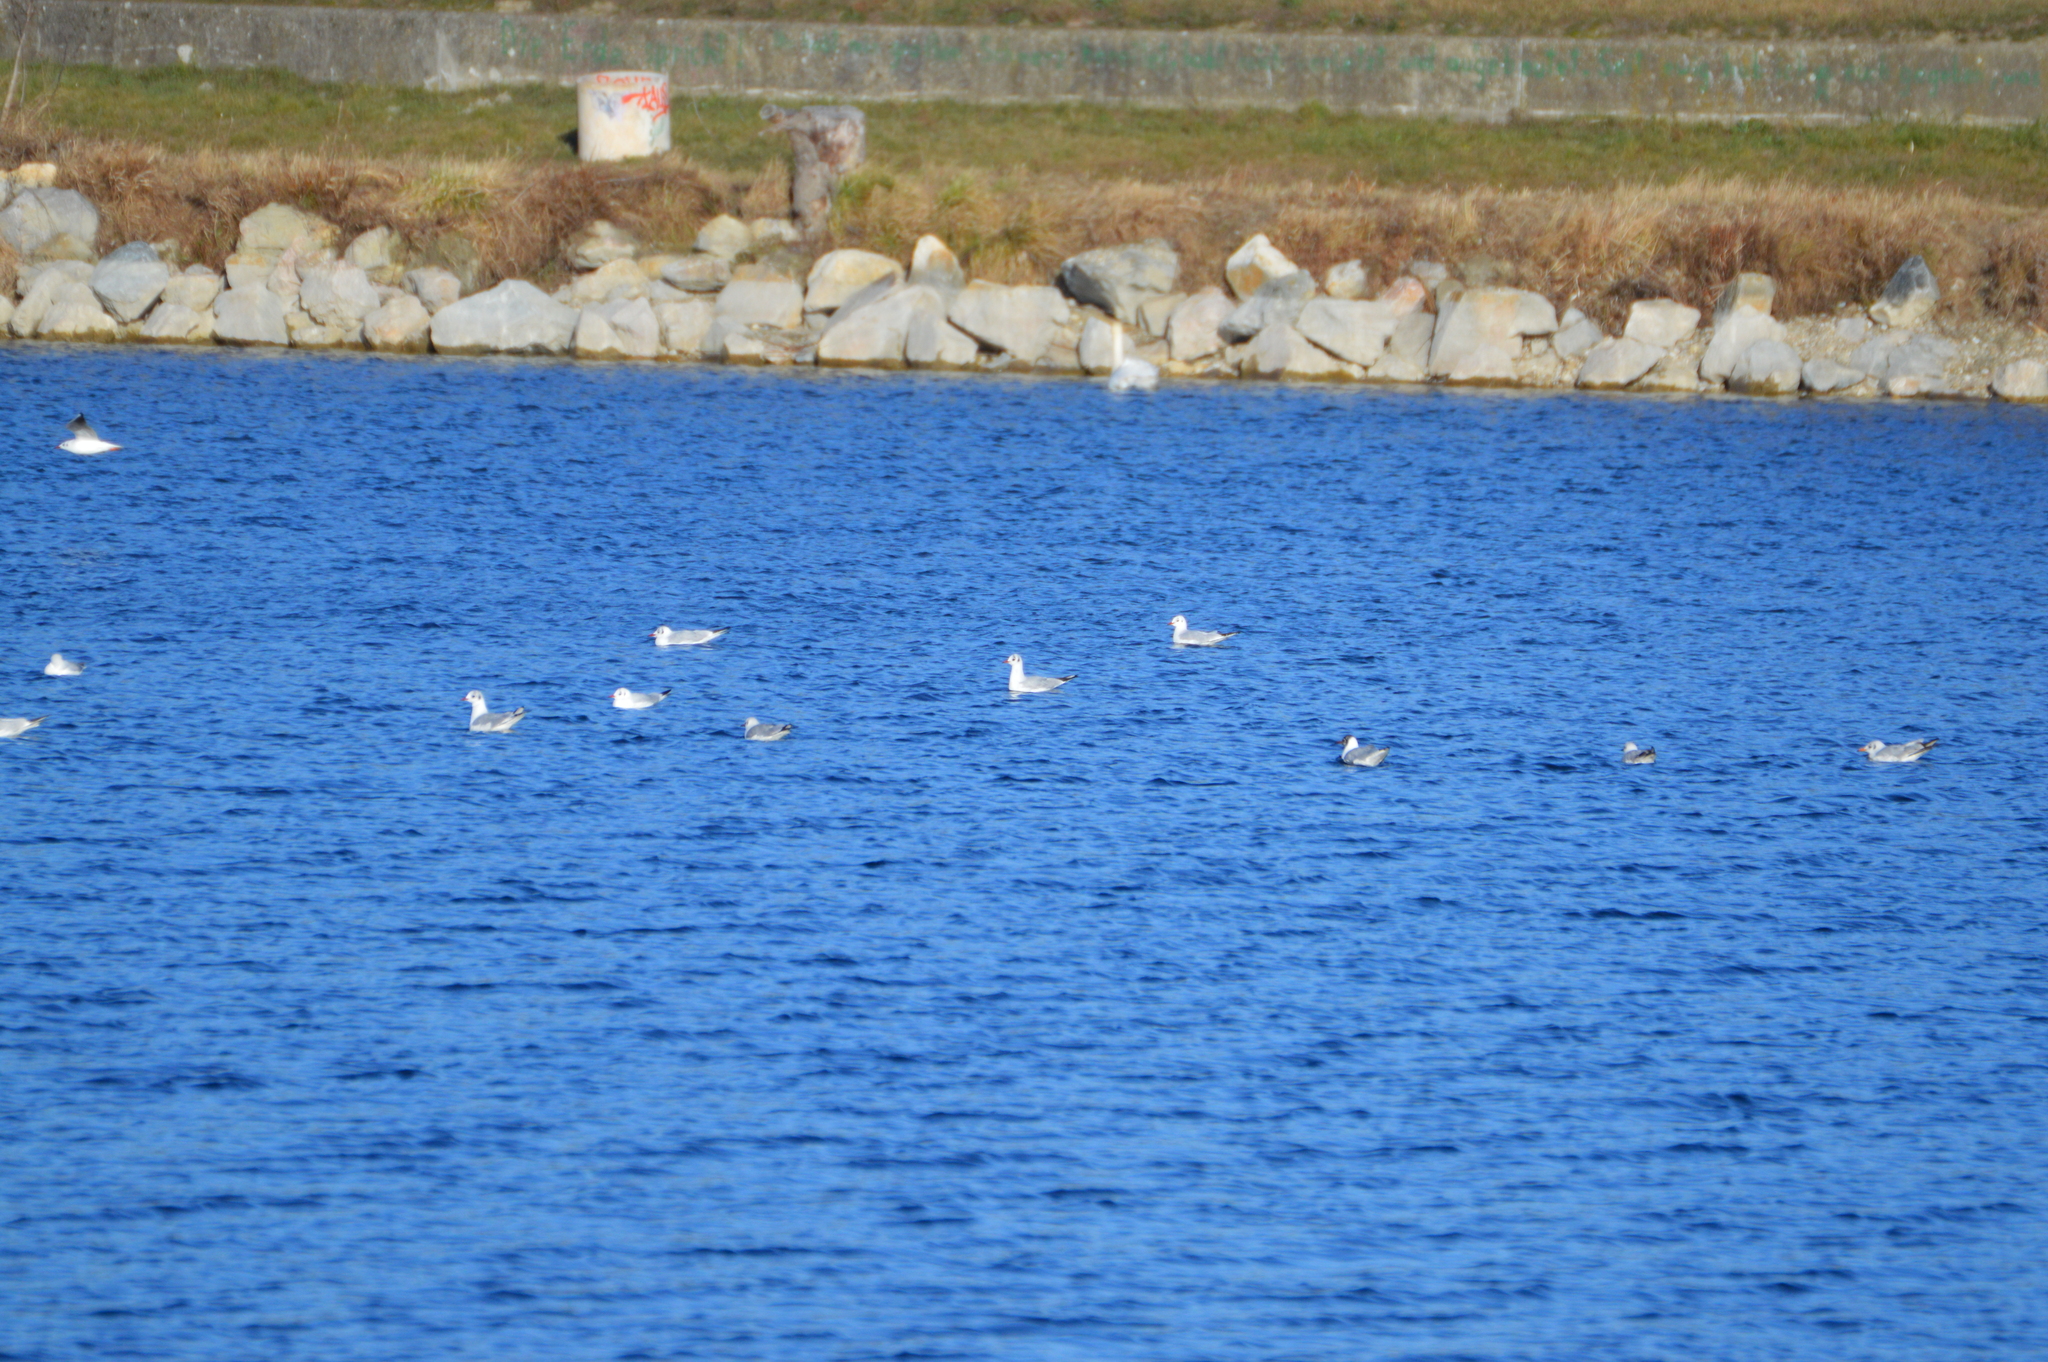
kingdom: Animalia
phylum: Chordata
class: Aves
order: Charadriiformes
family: Laridae
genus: Chroicocephalus
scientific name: Chroicocephalus ridibundus
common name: Black-headed gull
